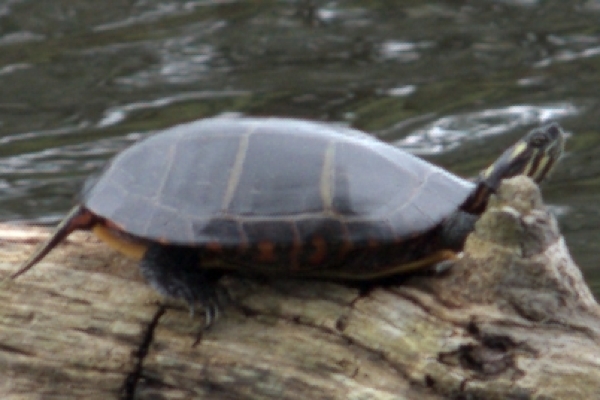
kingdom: Animalia
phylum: Chordata
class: Testudines
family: Emydidae
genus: Chrysemys
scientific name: Chrysemys picta
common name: Painted turtle
